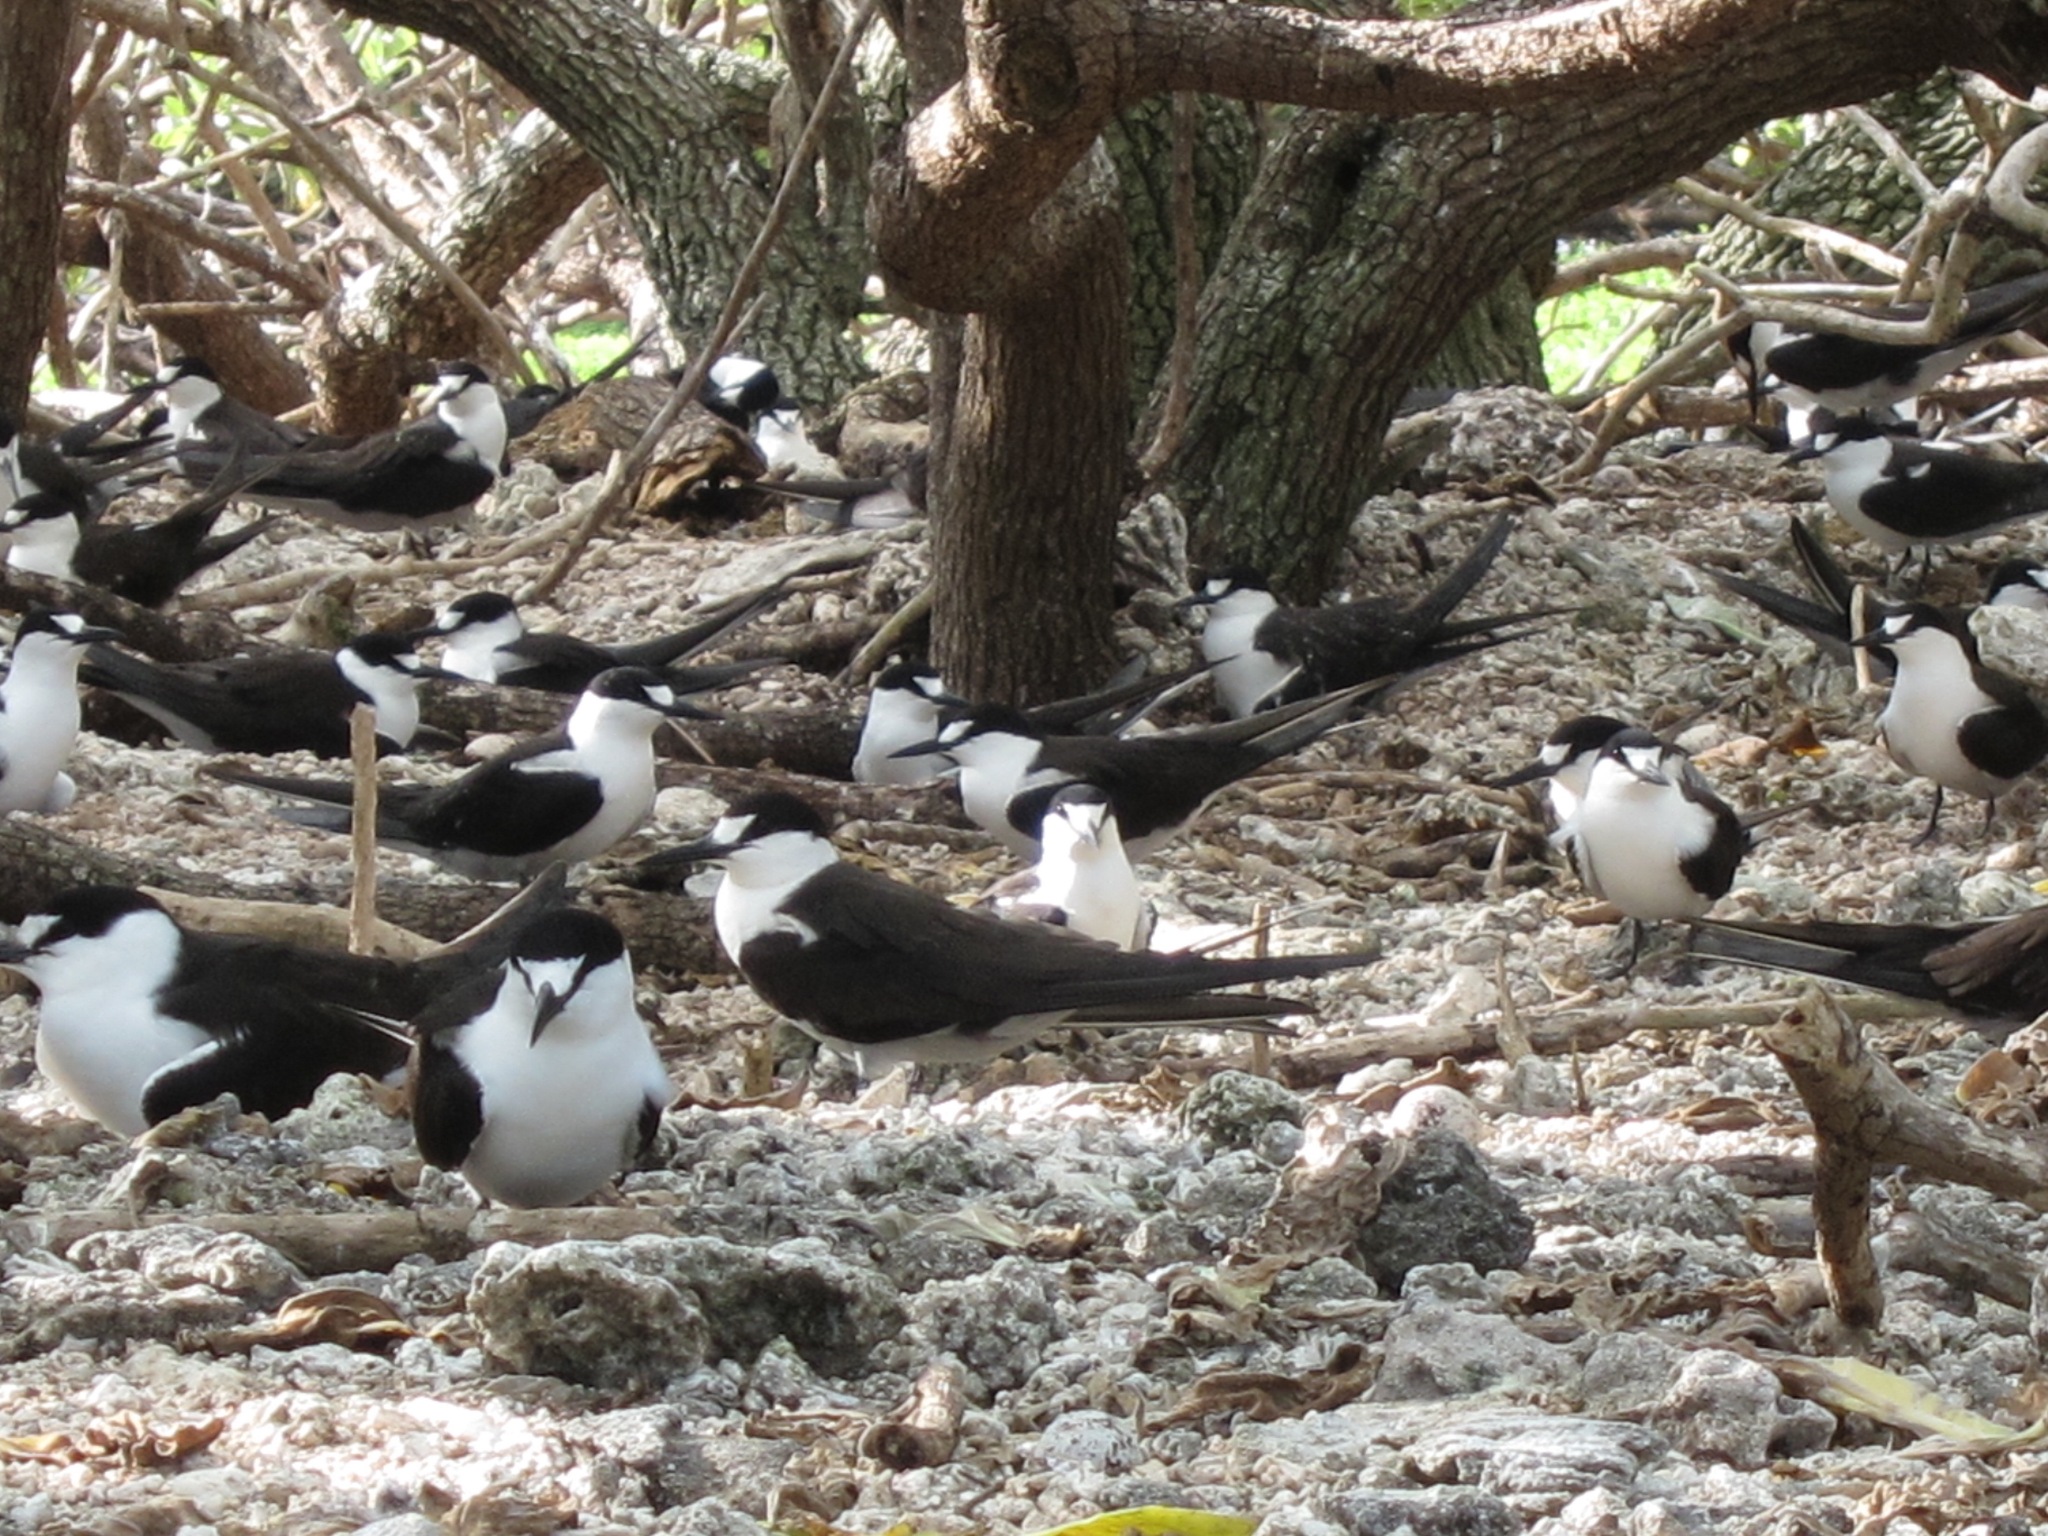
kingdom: Animalia
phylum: Chordata
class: Aves
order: Charadriiformes
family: Laridae
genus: Onychoprion
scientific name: Onychoprion fuscatus
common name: Sooty tern
